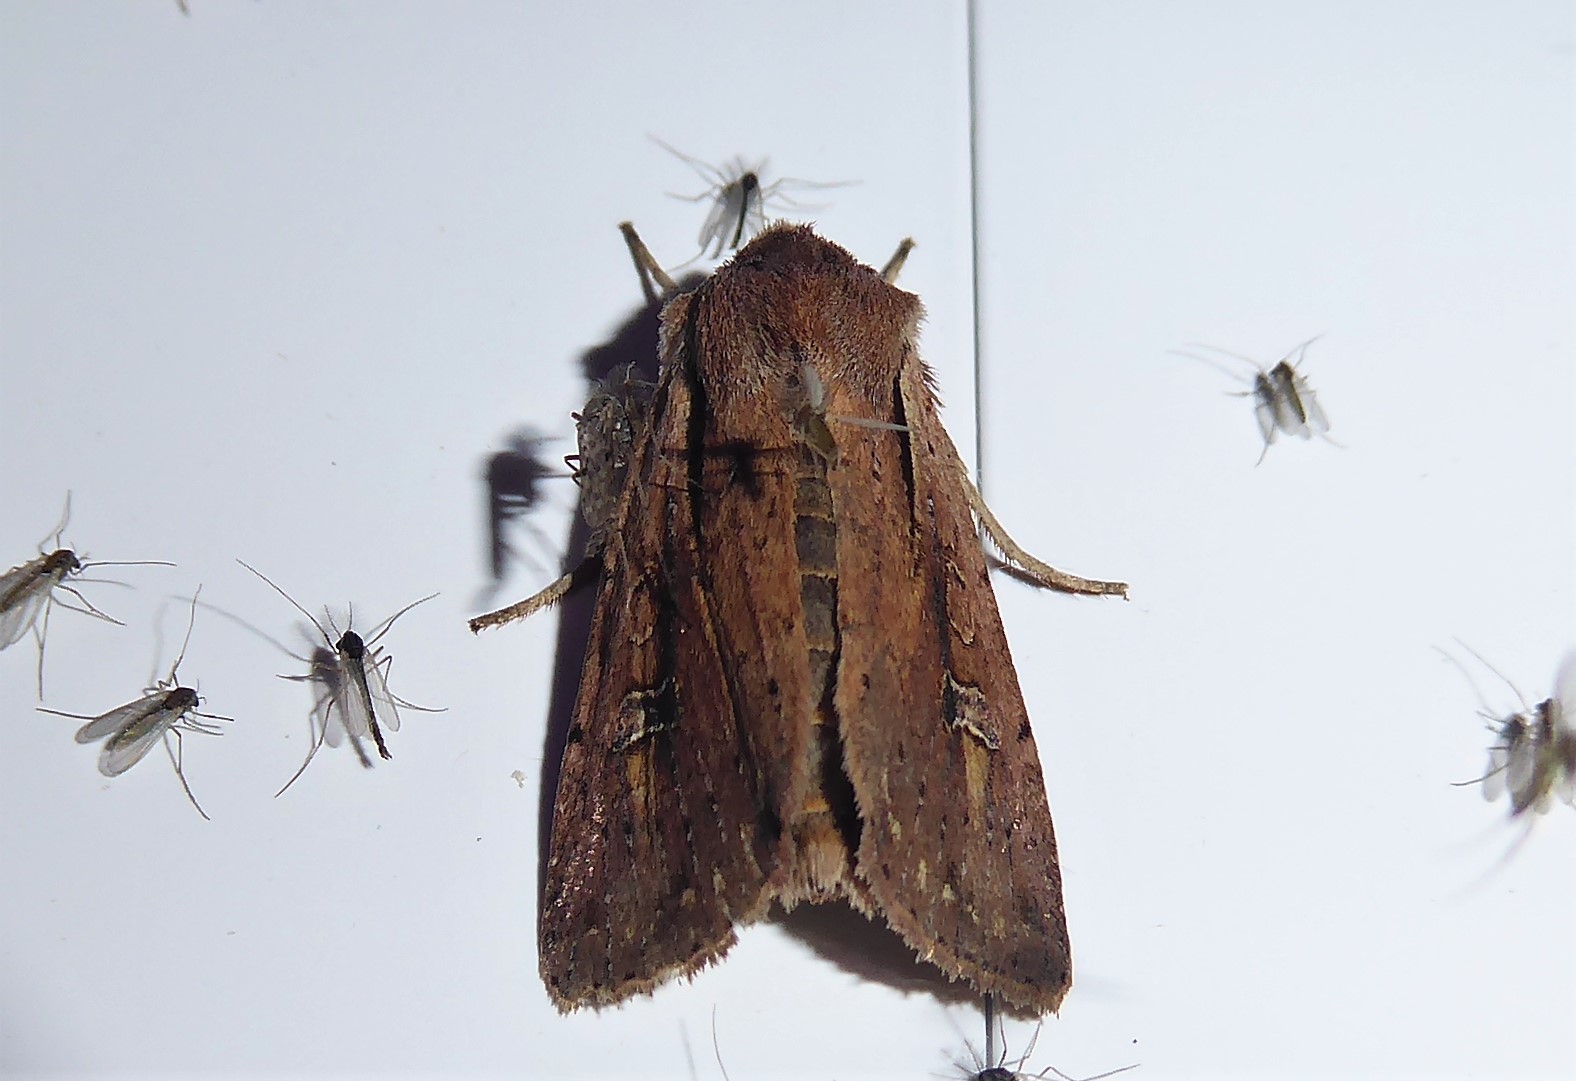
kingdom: Animalia
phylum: Arthropoda
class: Insecta
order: Lepidoptera
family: Noctuidae
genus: Ichneutica
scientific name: Ichneutica atristriga
